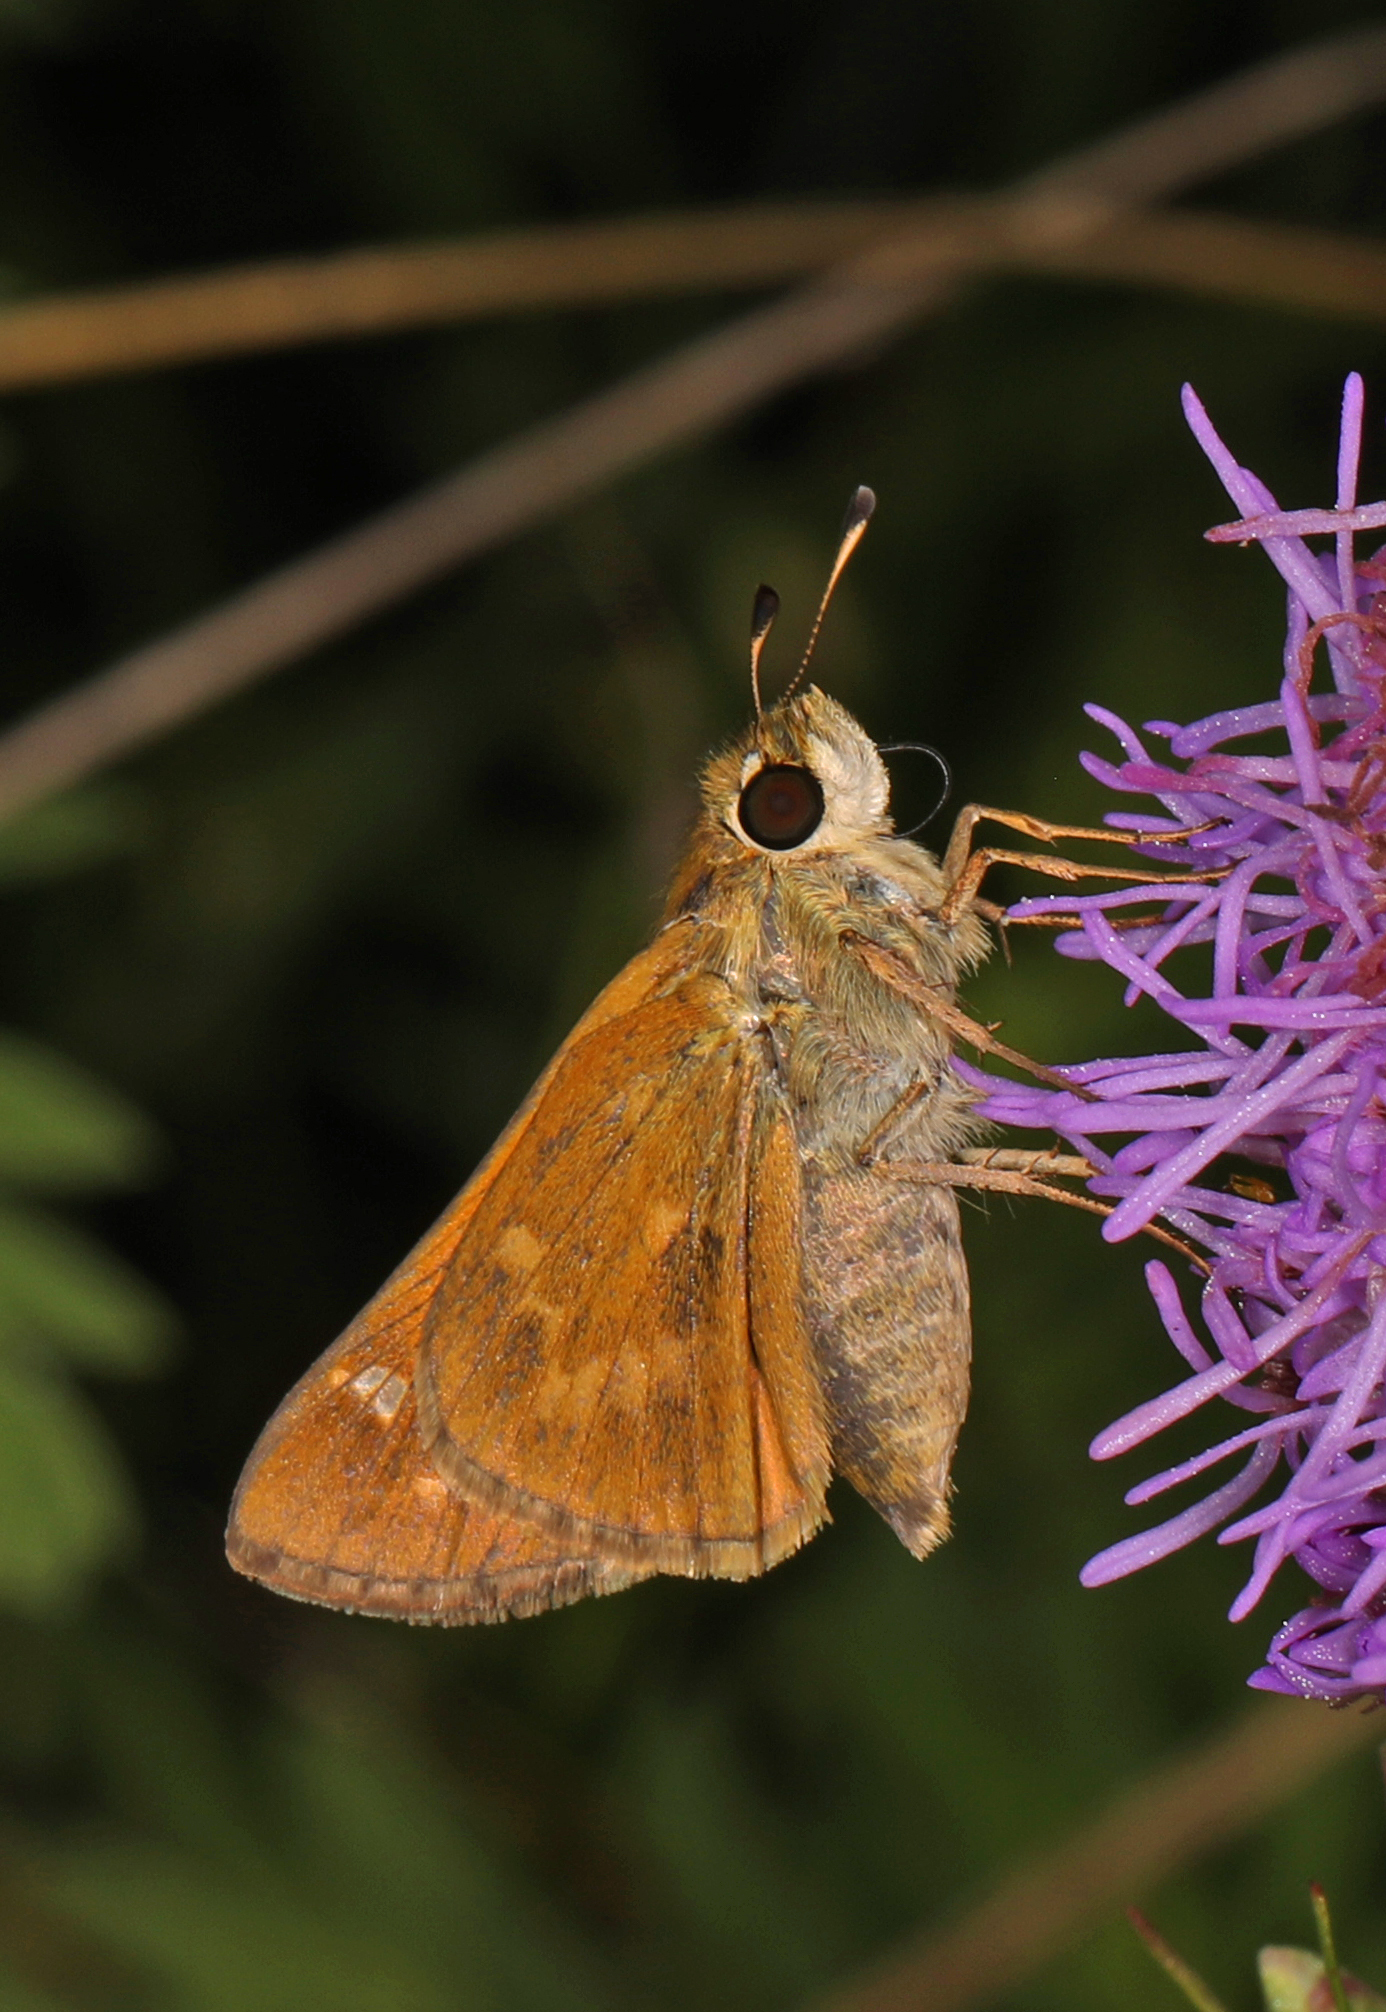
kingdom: Animalia
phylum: Arthropoda
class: Insecta
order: Lepidoptera
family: Hesperiidae
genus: Atalopedes
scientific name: Atalopedes
